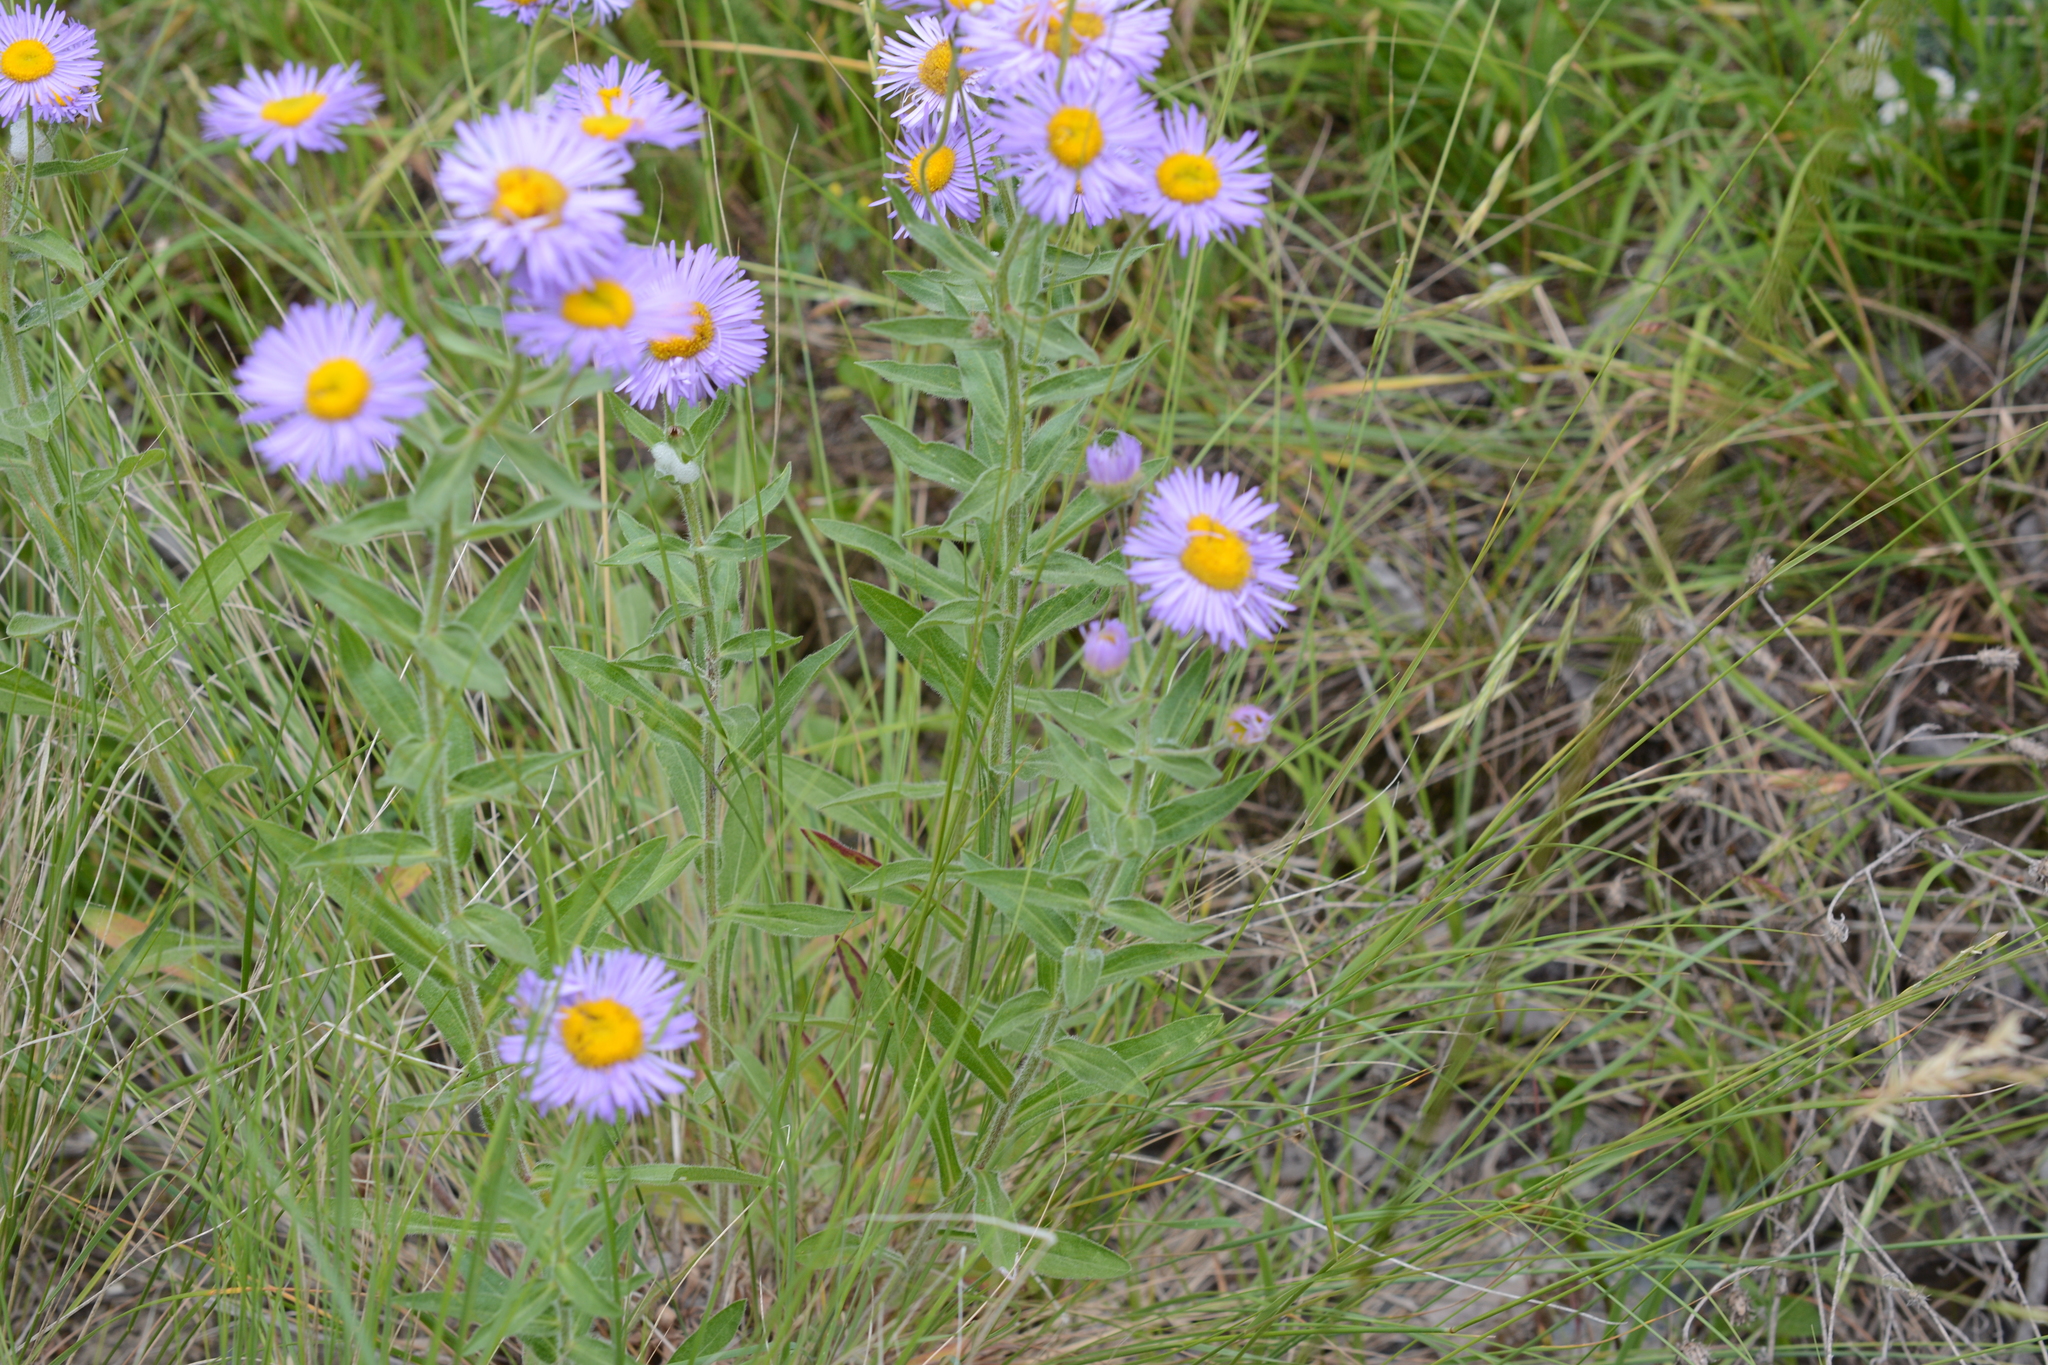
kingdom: Plantae
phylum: Tracheophyta
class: Magnoliopsida
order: Asterales
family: Asteraceae
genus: Erigeron
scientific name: Erigeron speciosus
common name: Aspen fleabane
